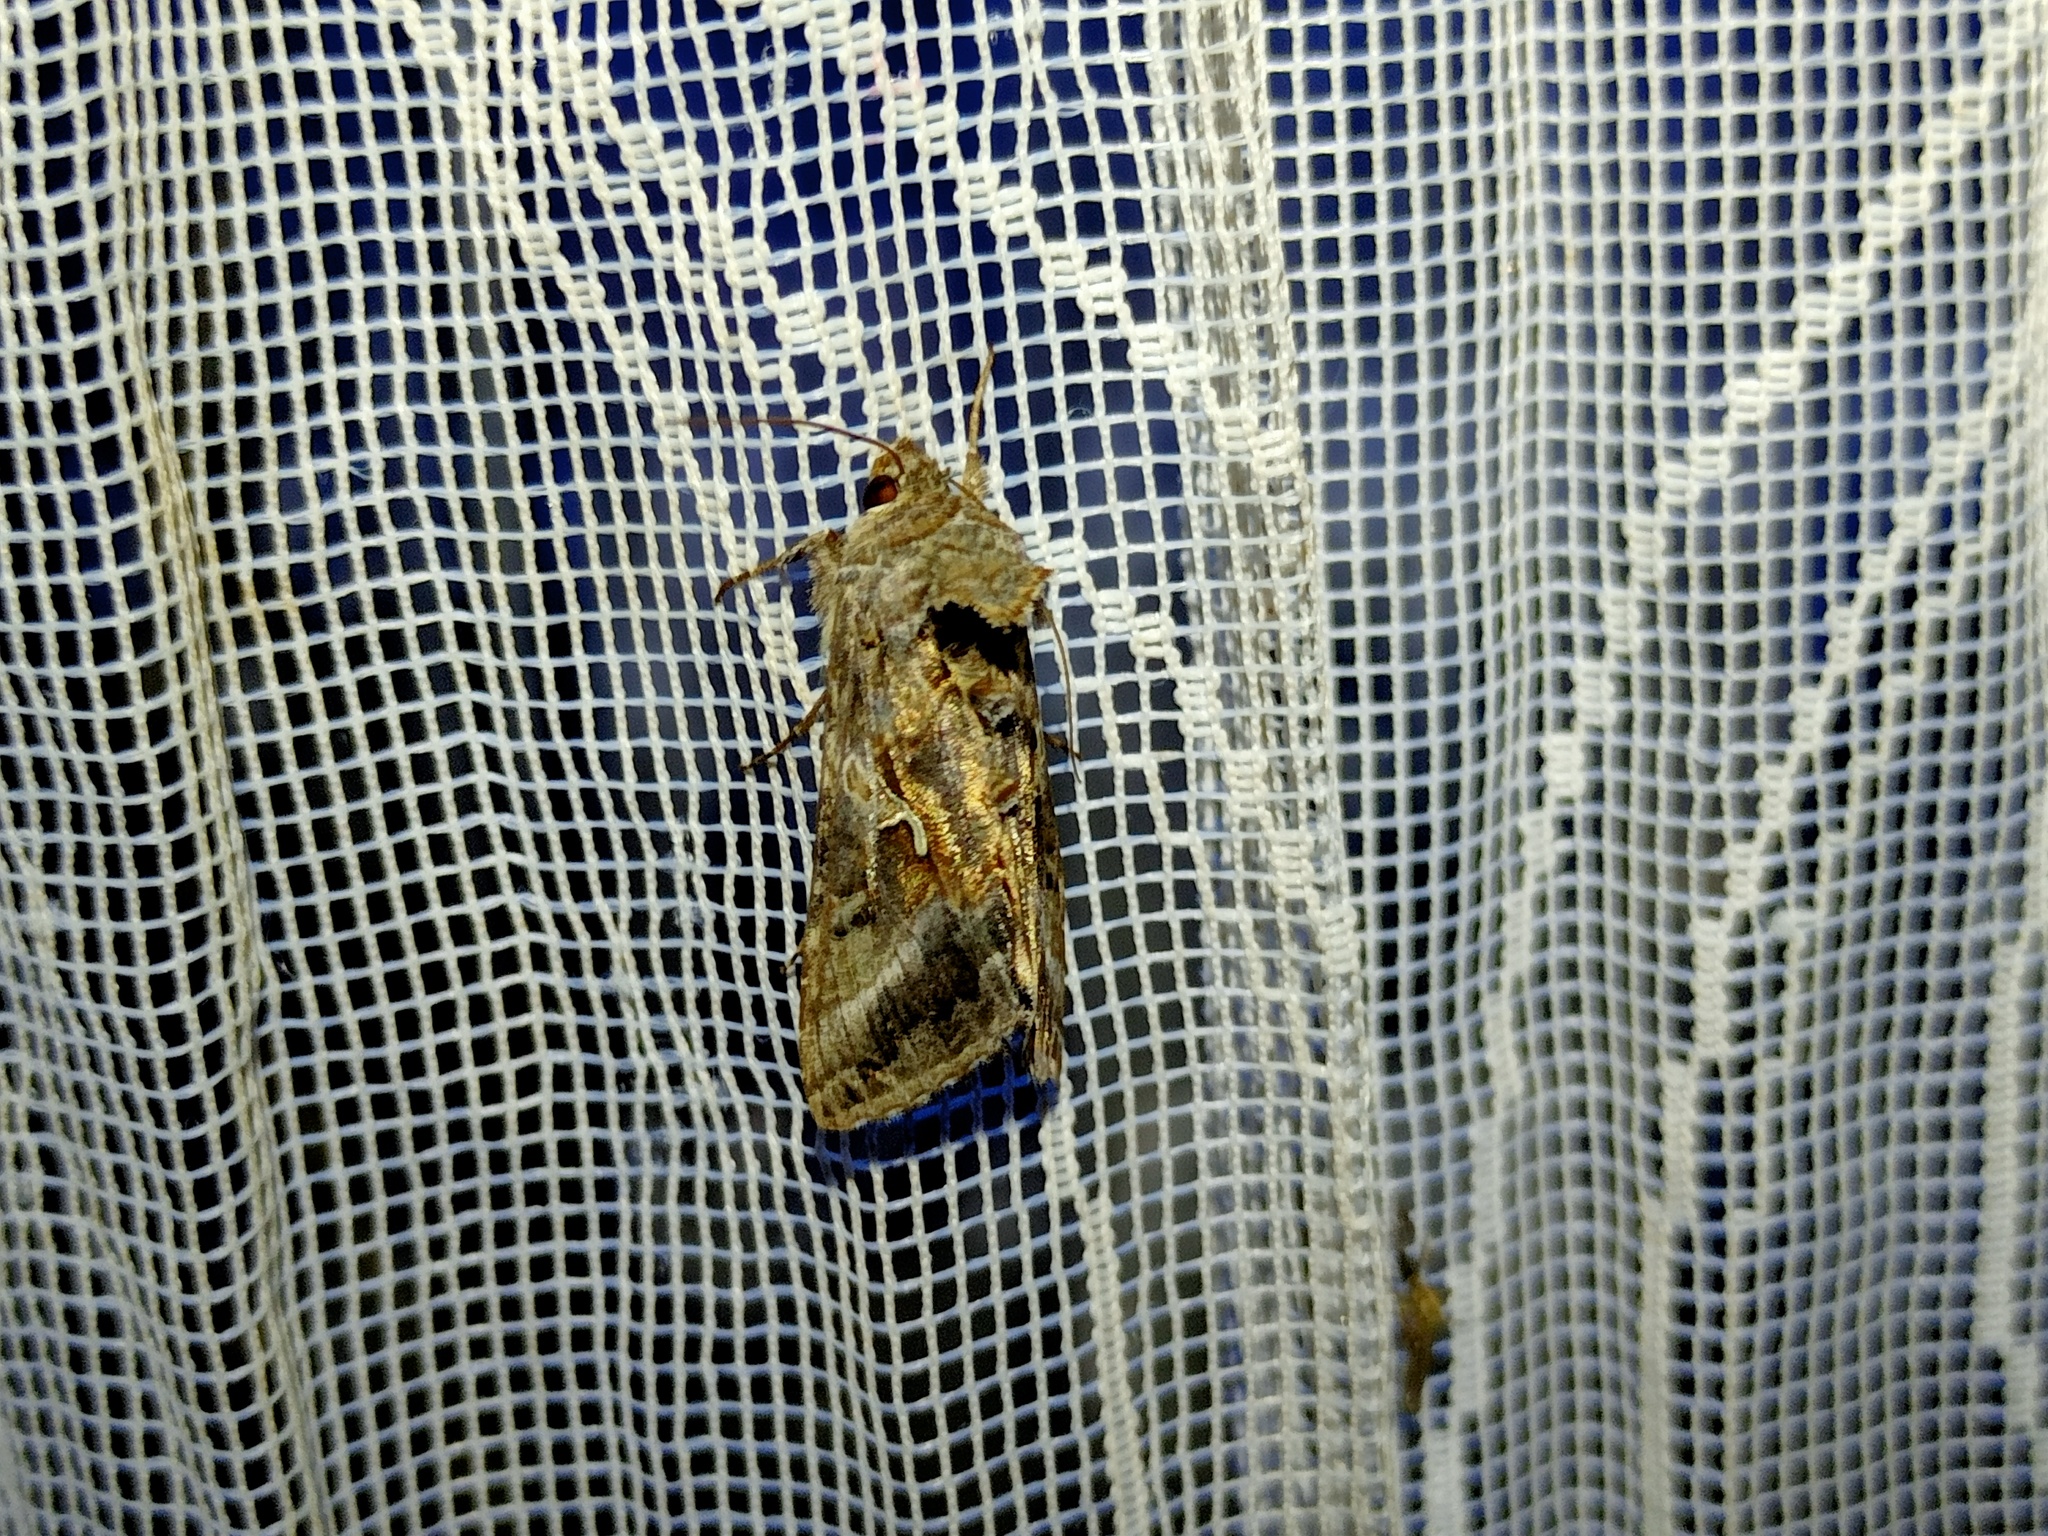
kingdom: Animalia
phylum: Arthropoda
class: Insecta
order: Lepidoptera
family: Noctuidae
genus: Autographa
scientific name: Autographa gamma
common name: Silver y
